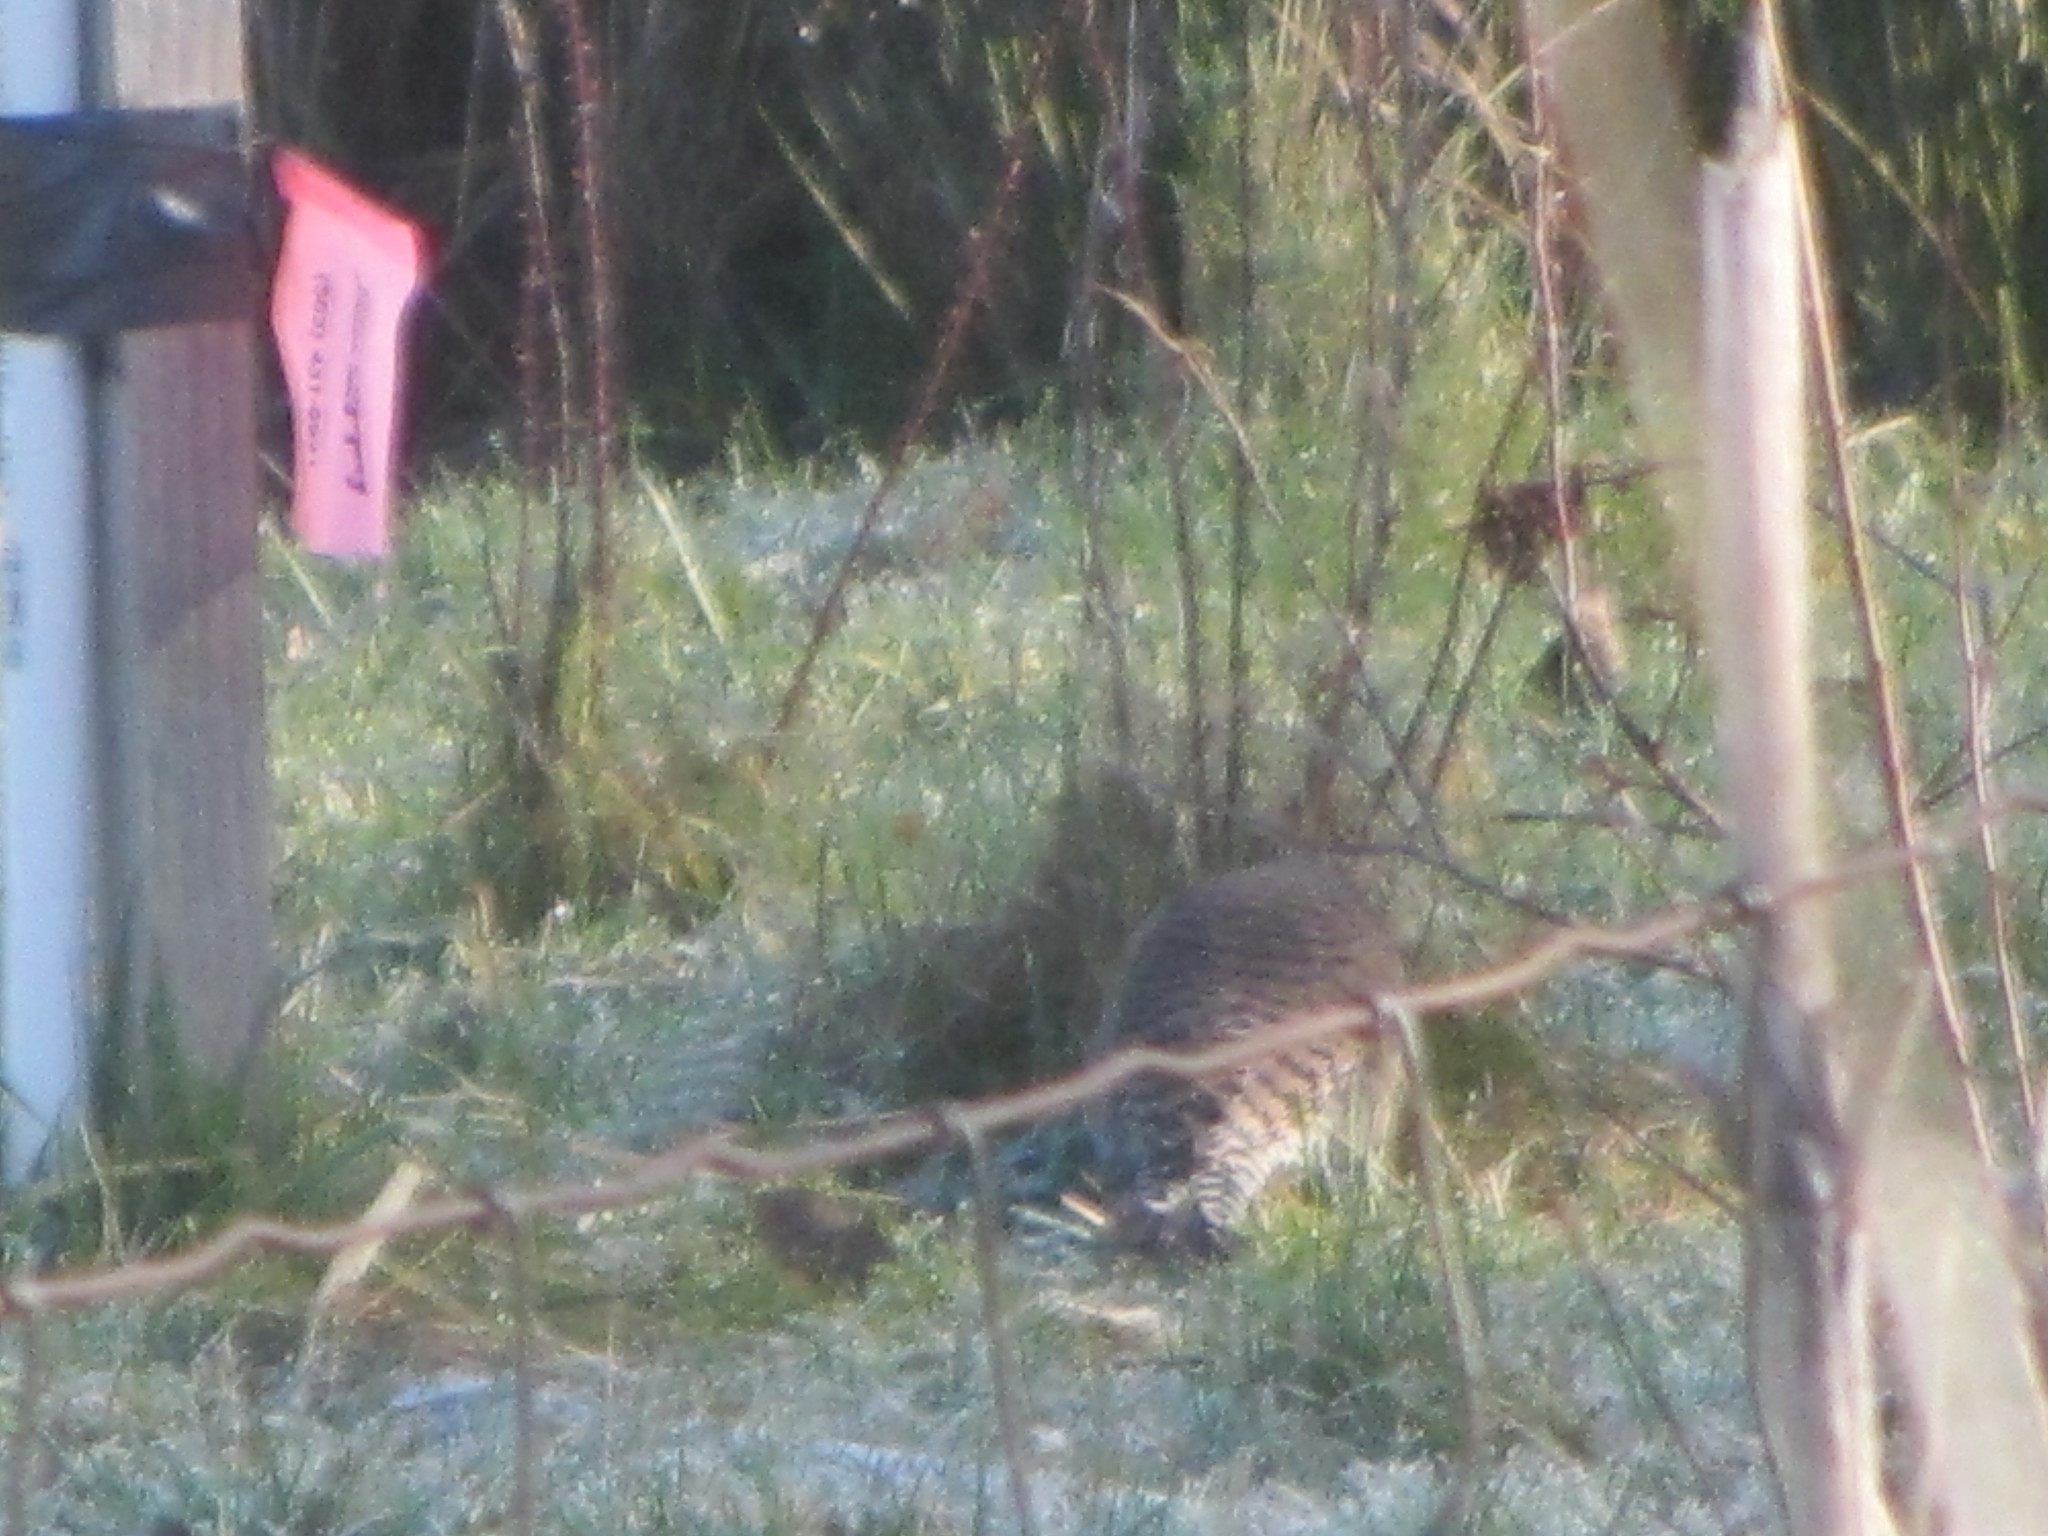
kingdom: Animalia
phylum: Chordata
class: Aves
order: Piciformes
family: Picidae
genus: Colaptes
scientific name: Colaptes auratus
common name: Northern flicker
